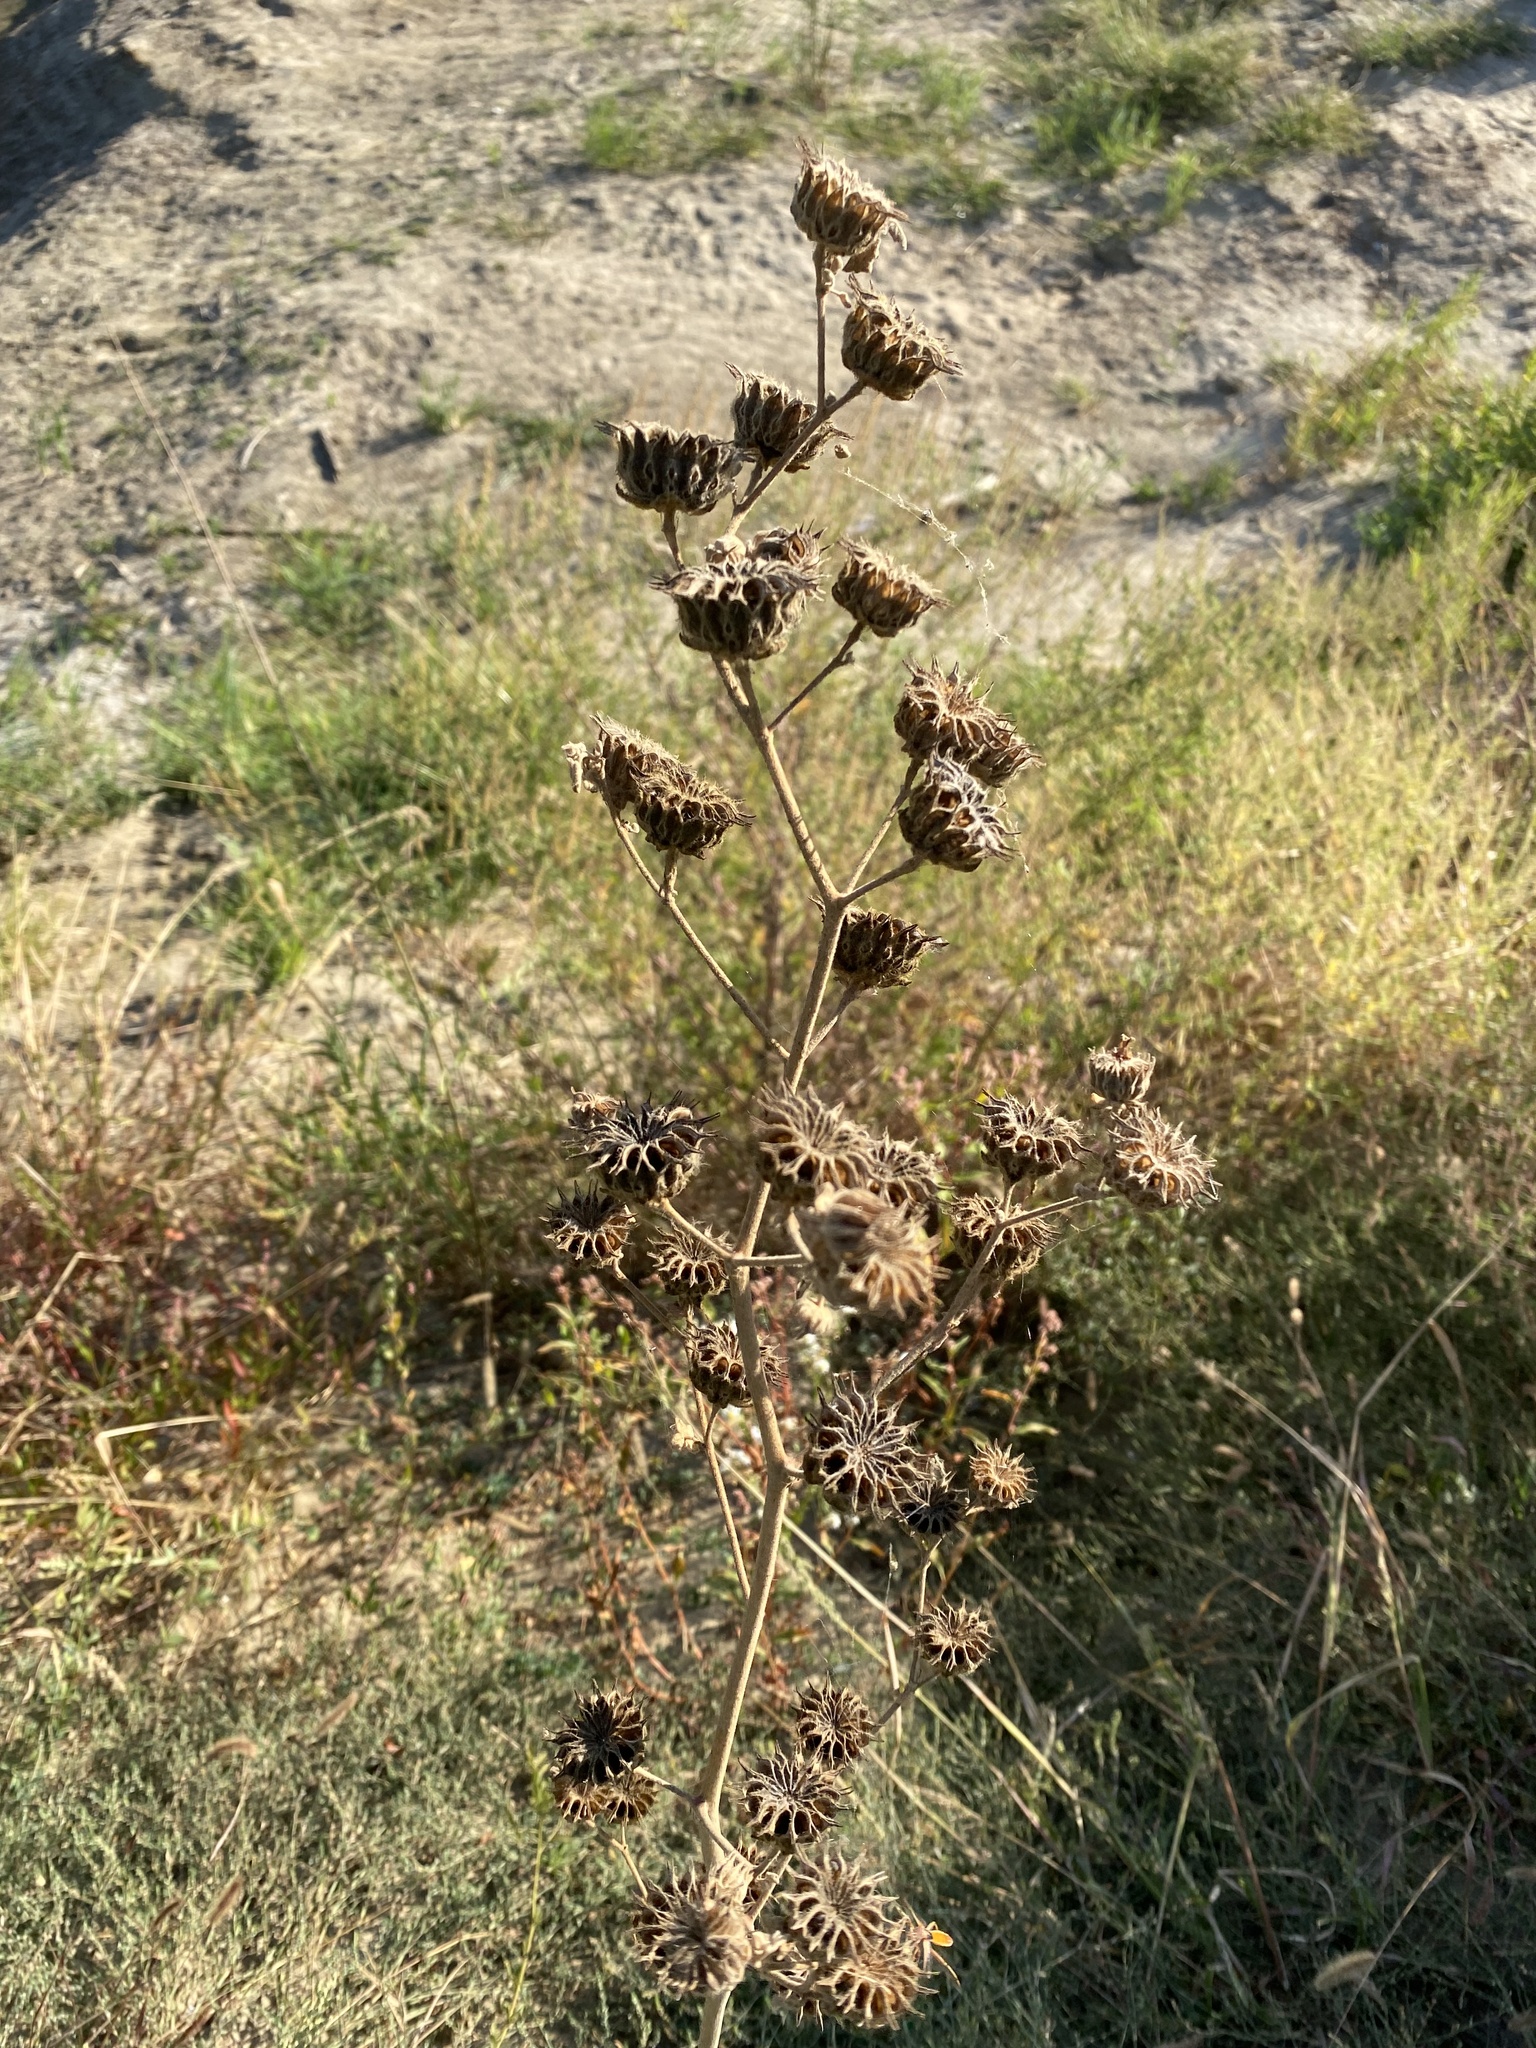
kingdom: Plantae
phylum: Tracheophyta
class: Magnoliopsida
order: Malvales
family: Malvaceae
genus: Abutilon
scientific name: Abutilon theophrasti
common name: Velvetleaf
